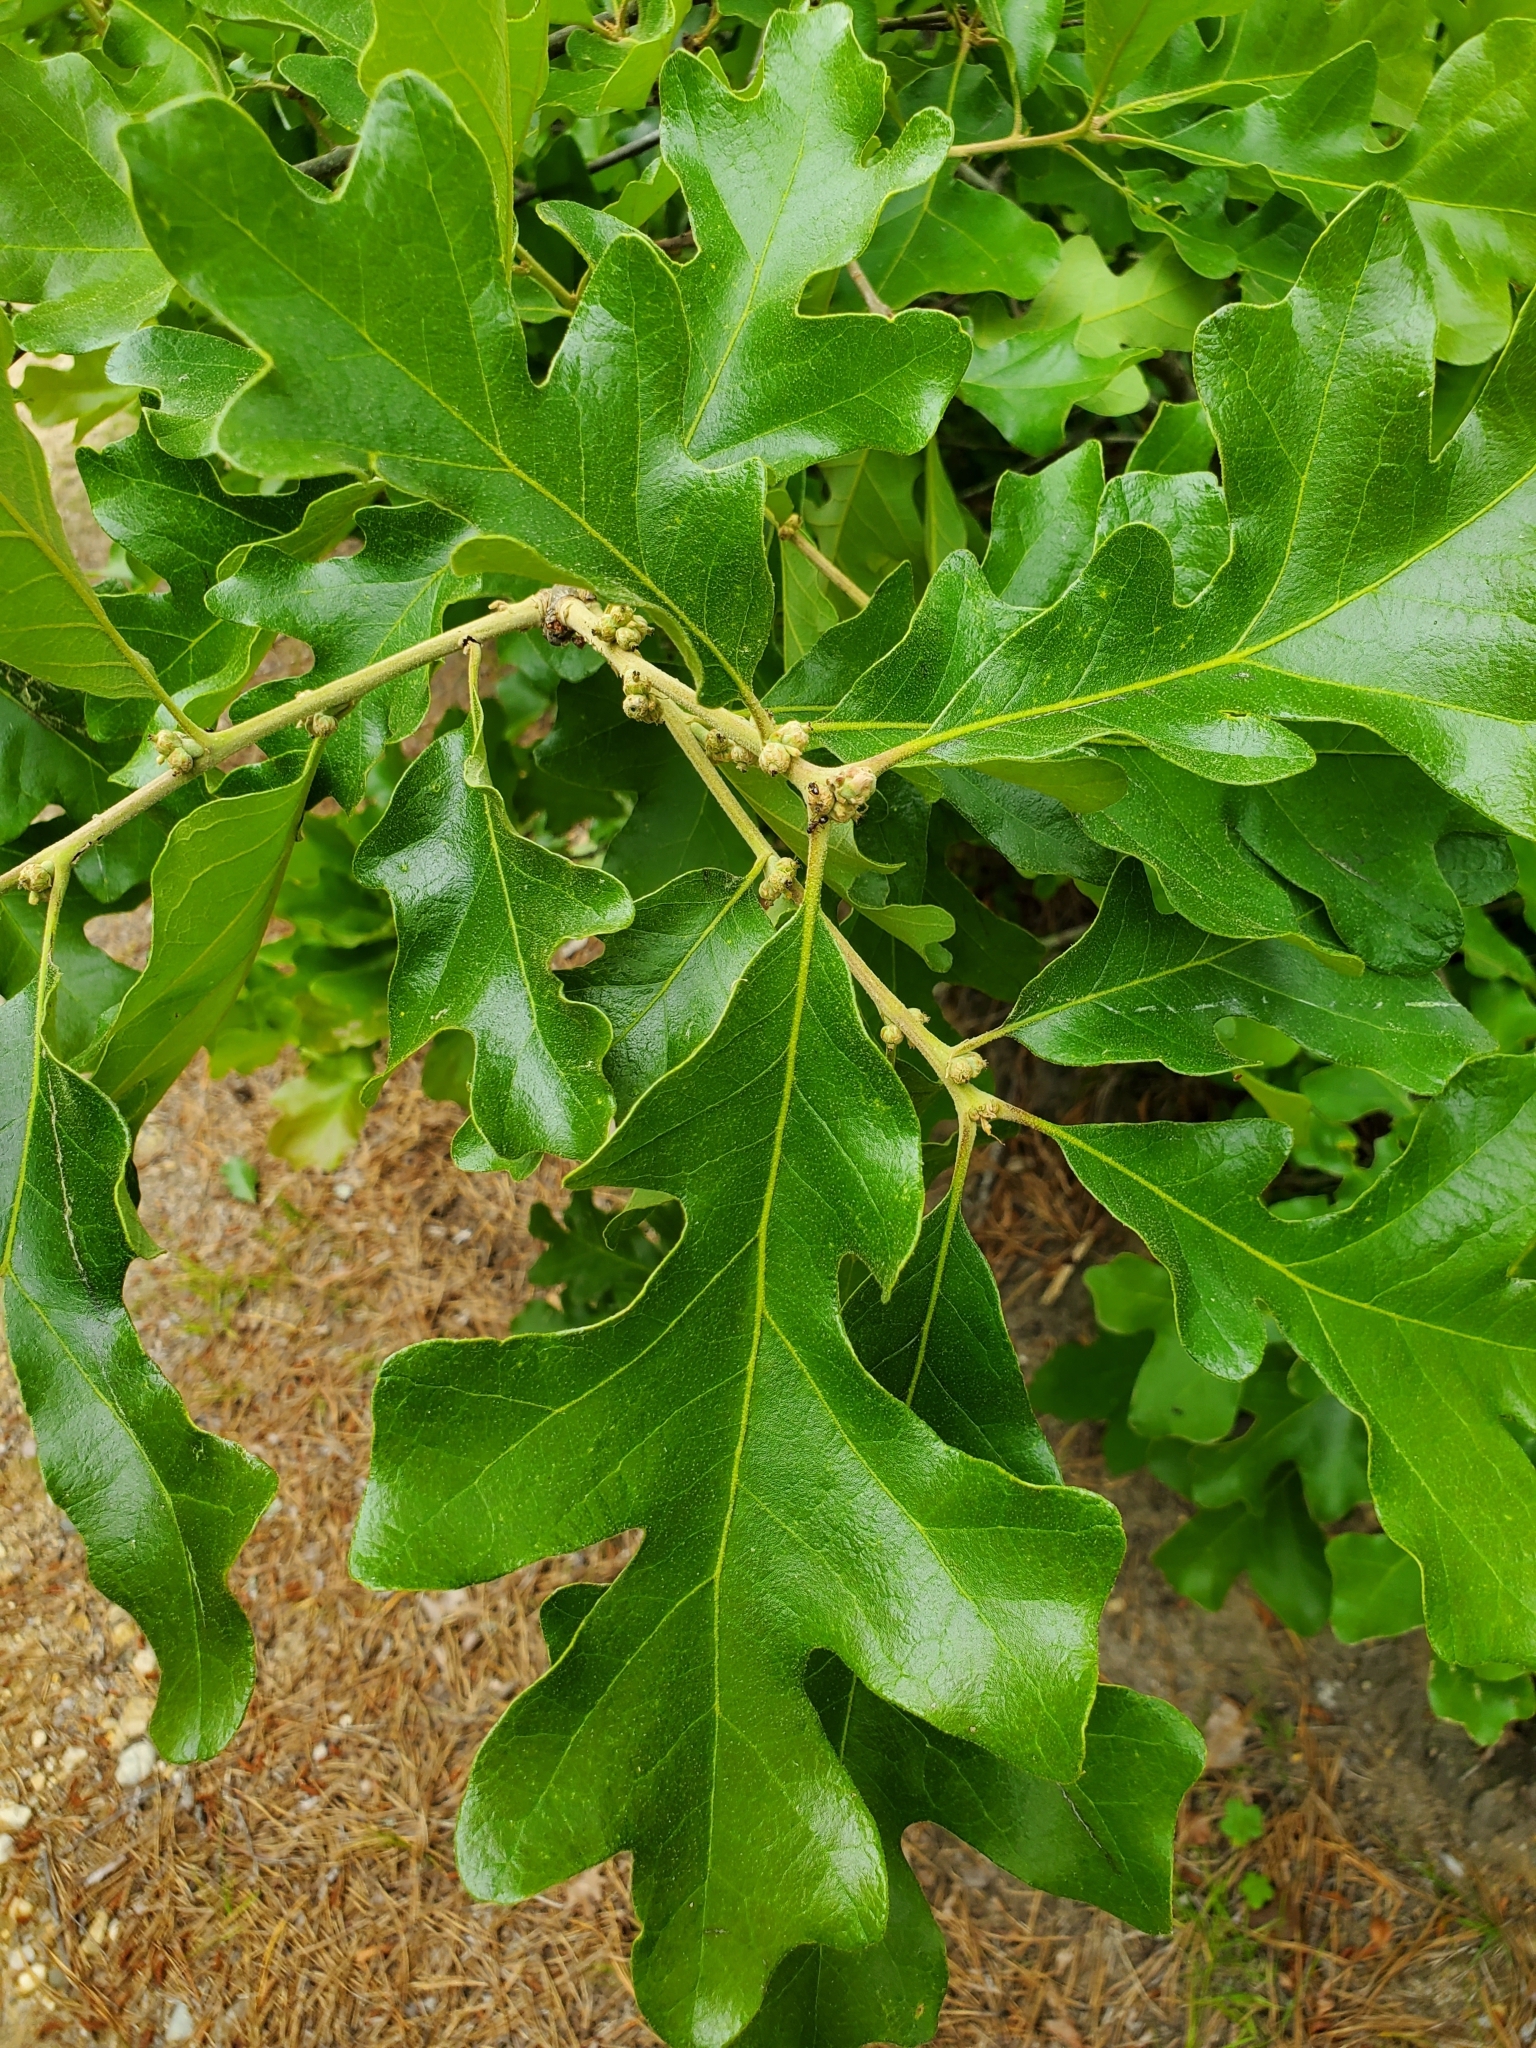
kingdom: Plantae
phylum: Tracheophyta
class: Magnoliopsida
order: Fagales
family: Fagaceae
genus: Quercus
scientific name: Quercus stellata
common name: Post oak
